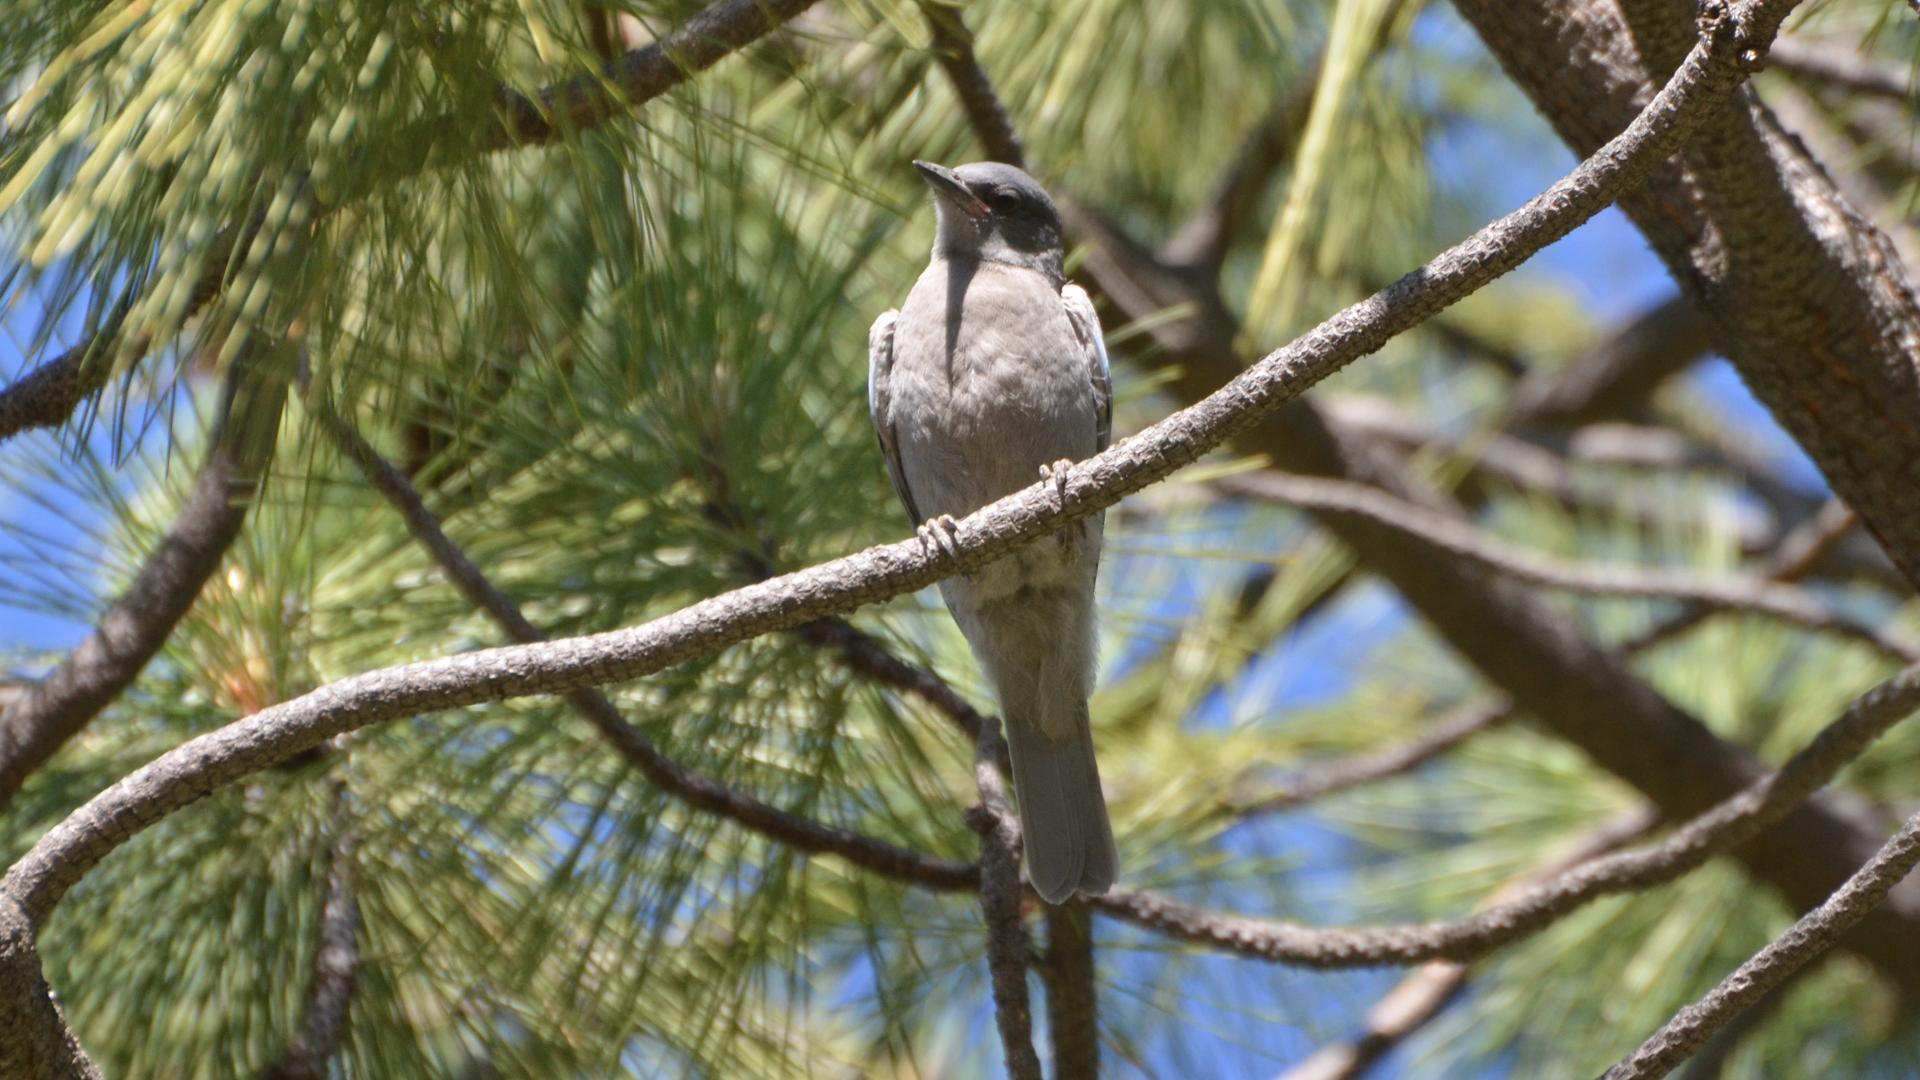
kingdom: Animalia
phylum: Chordata
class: Aves
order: Passeriformes
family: Corvidae
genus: Gymnorhinus
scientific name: Gymnorhinus cyanocephalus
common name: Pinyon jay
